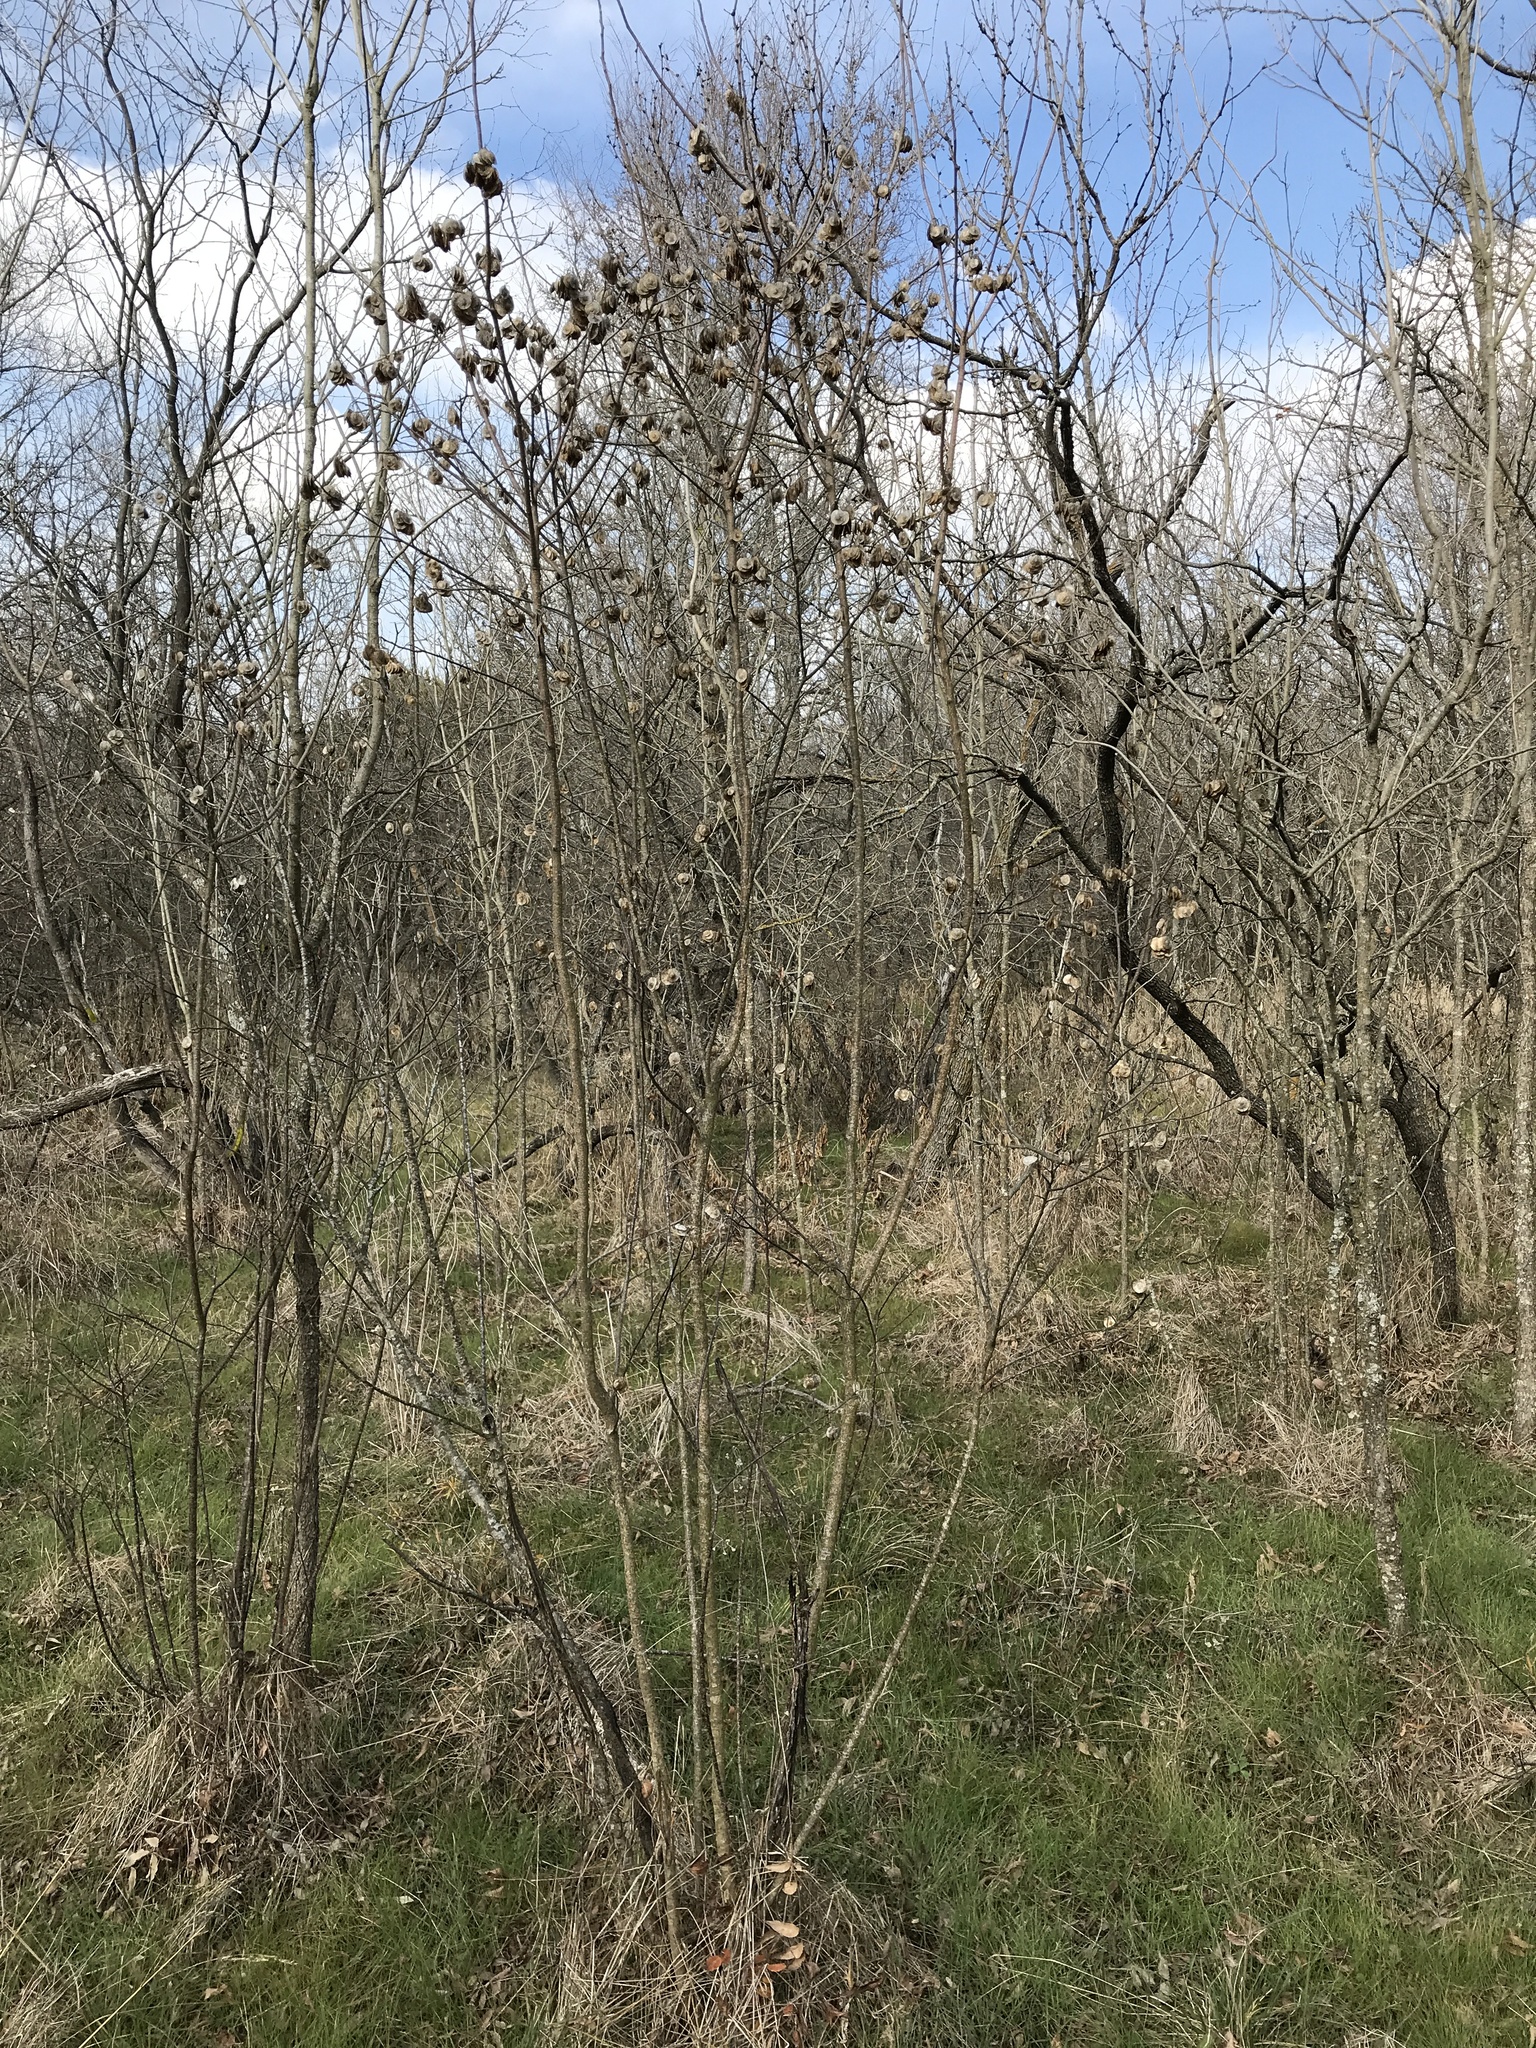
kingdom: Plantae
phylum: Tracheophyta
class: Magnoliopsida
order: Sapindales
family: Rutaceae
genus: Ptelea
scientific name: Ptelea trifoliata
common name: Common hop-tree
